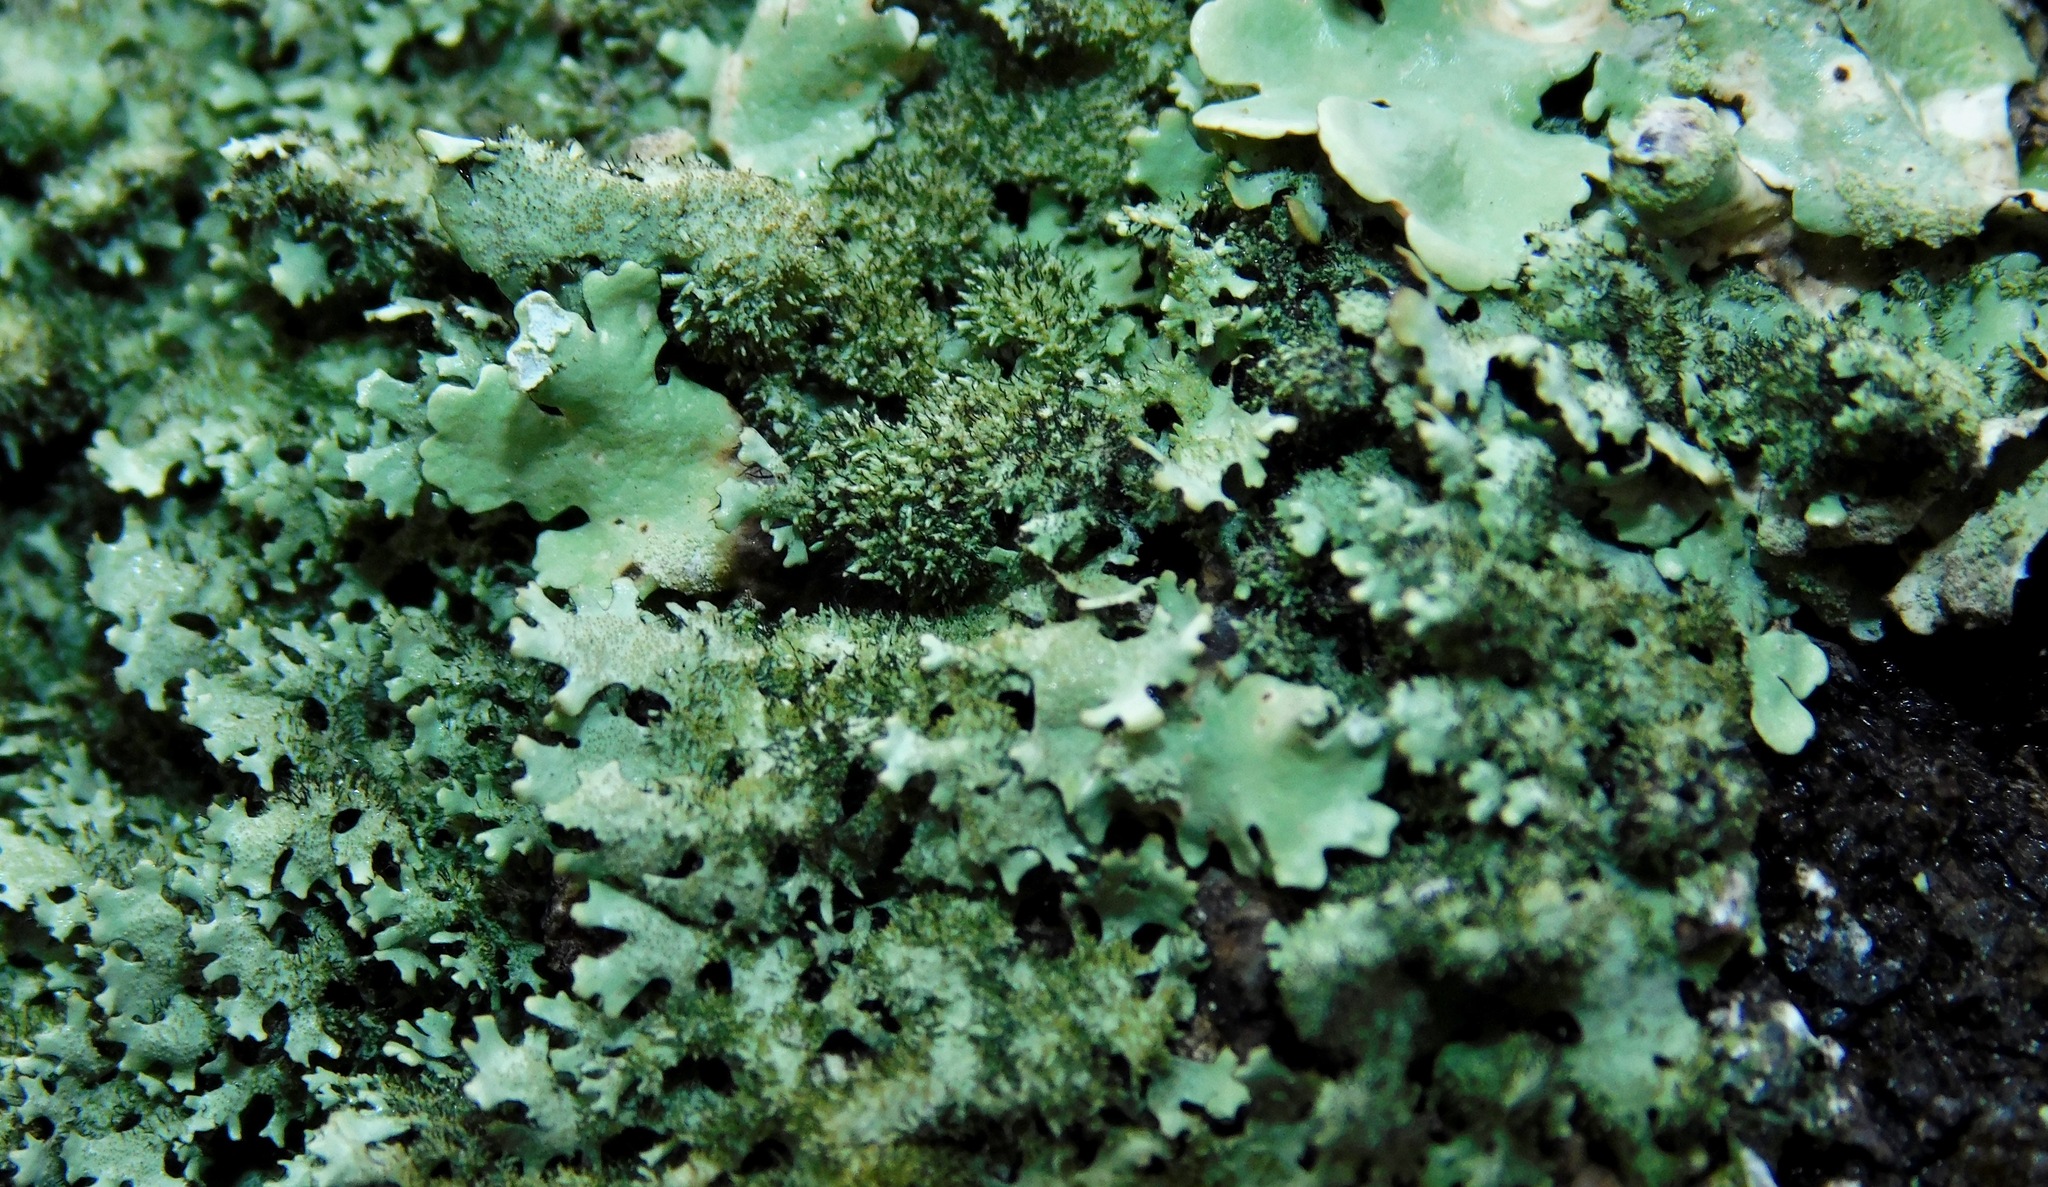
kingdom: Fungi
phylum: Ascomycota
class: Lecanoromycetes
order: Lecanorales
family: Parmeliaceae
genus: Hypotrachyna
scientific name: Hypotrachyna horrescens
